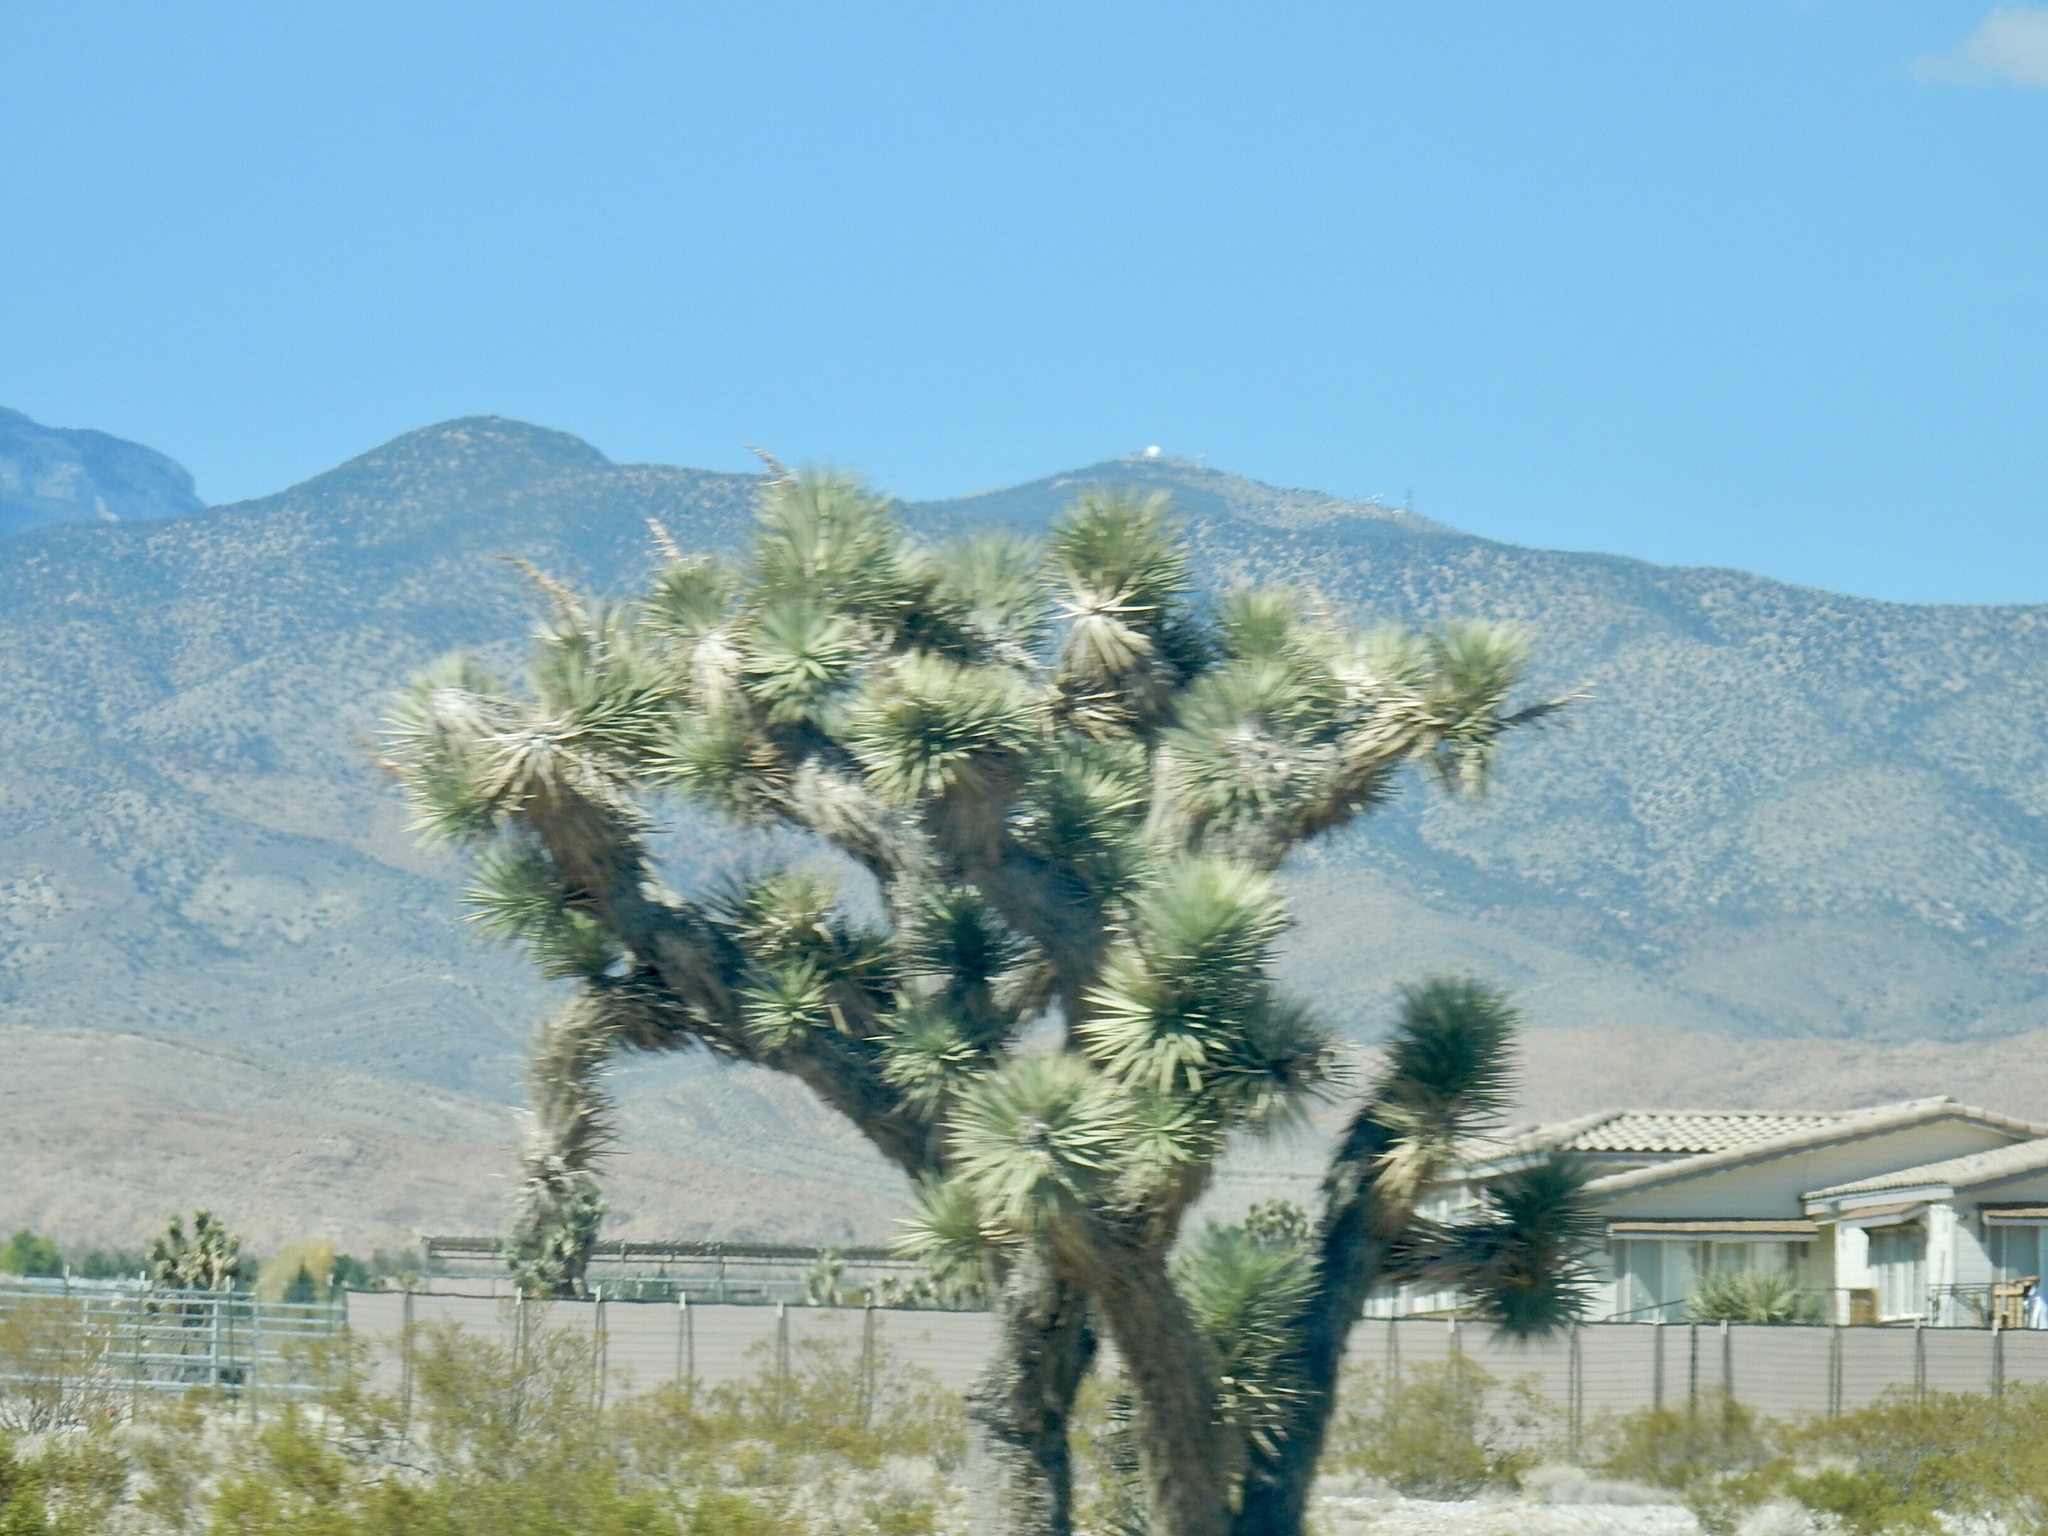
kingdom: Plantae
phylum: Tracheophyta
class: Liliopsida
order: Asparagales
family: Asparagaceae
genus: Yucca
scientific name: Yucca brevifolia
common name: Joshua tree
